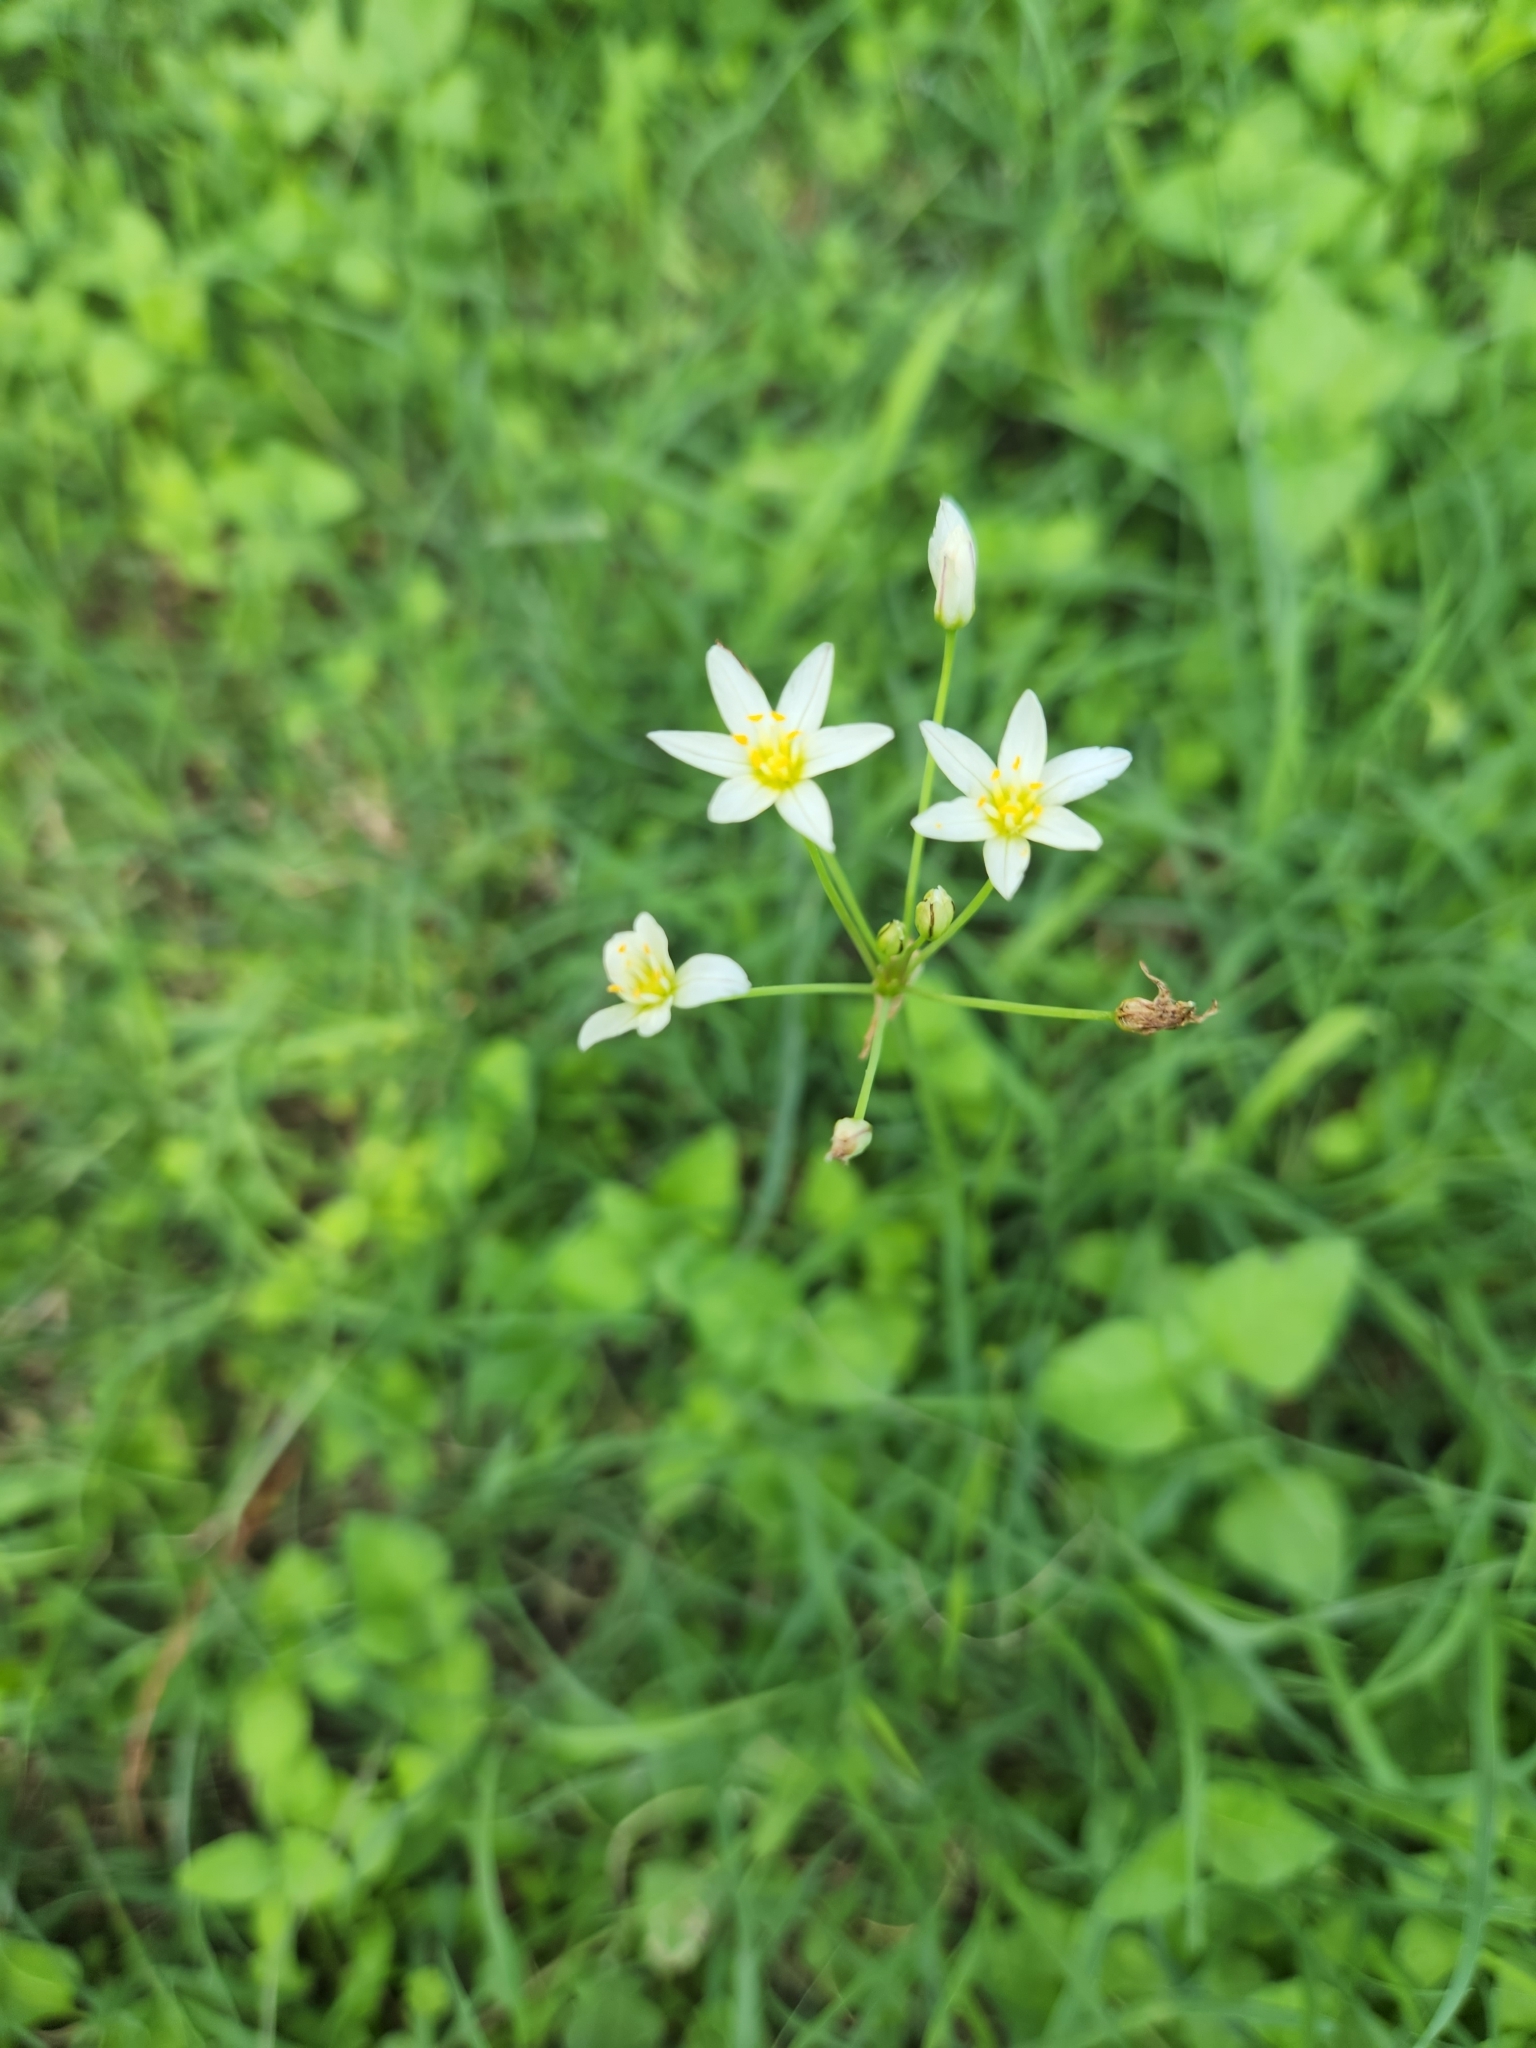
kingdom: Plantae
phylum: Tracheophyta
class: Liliopsida
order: Asparagales
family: Amaryllidaceae
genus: Nothoscordum
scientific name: Nothoscordum bivalve
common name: Crow-poison
